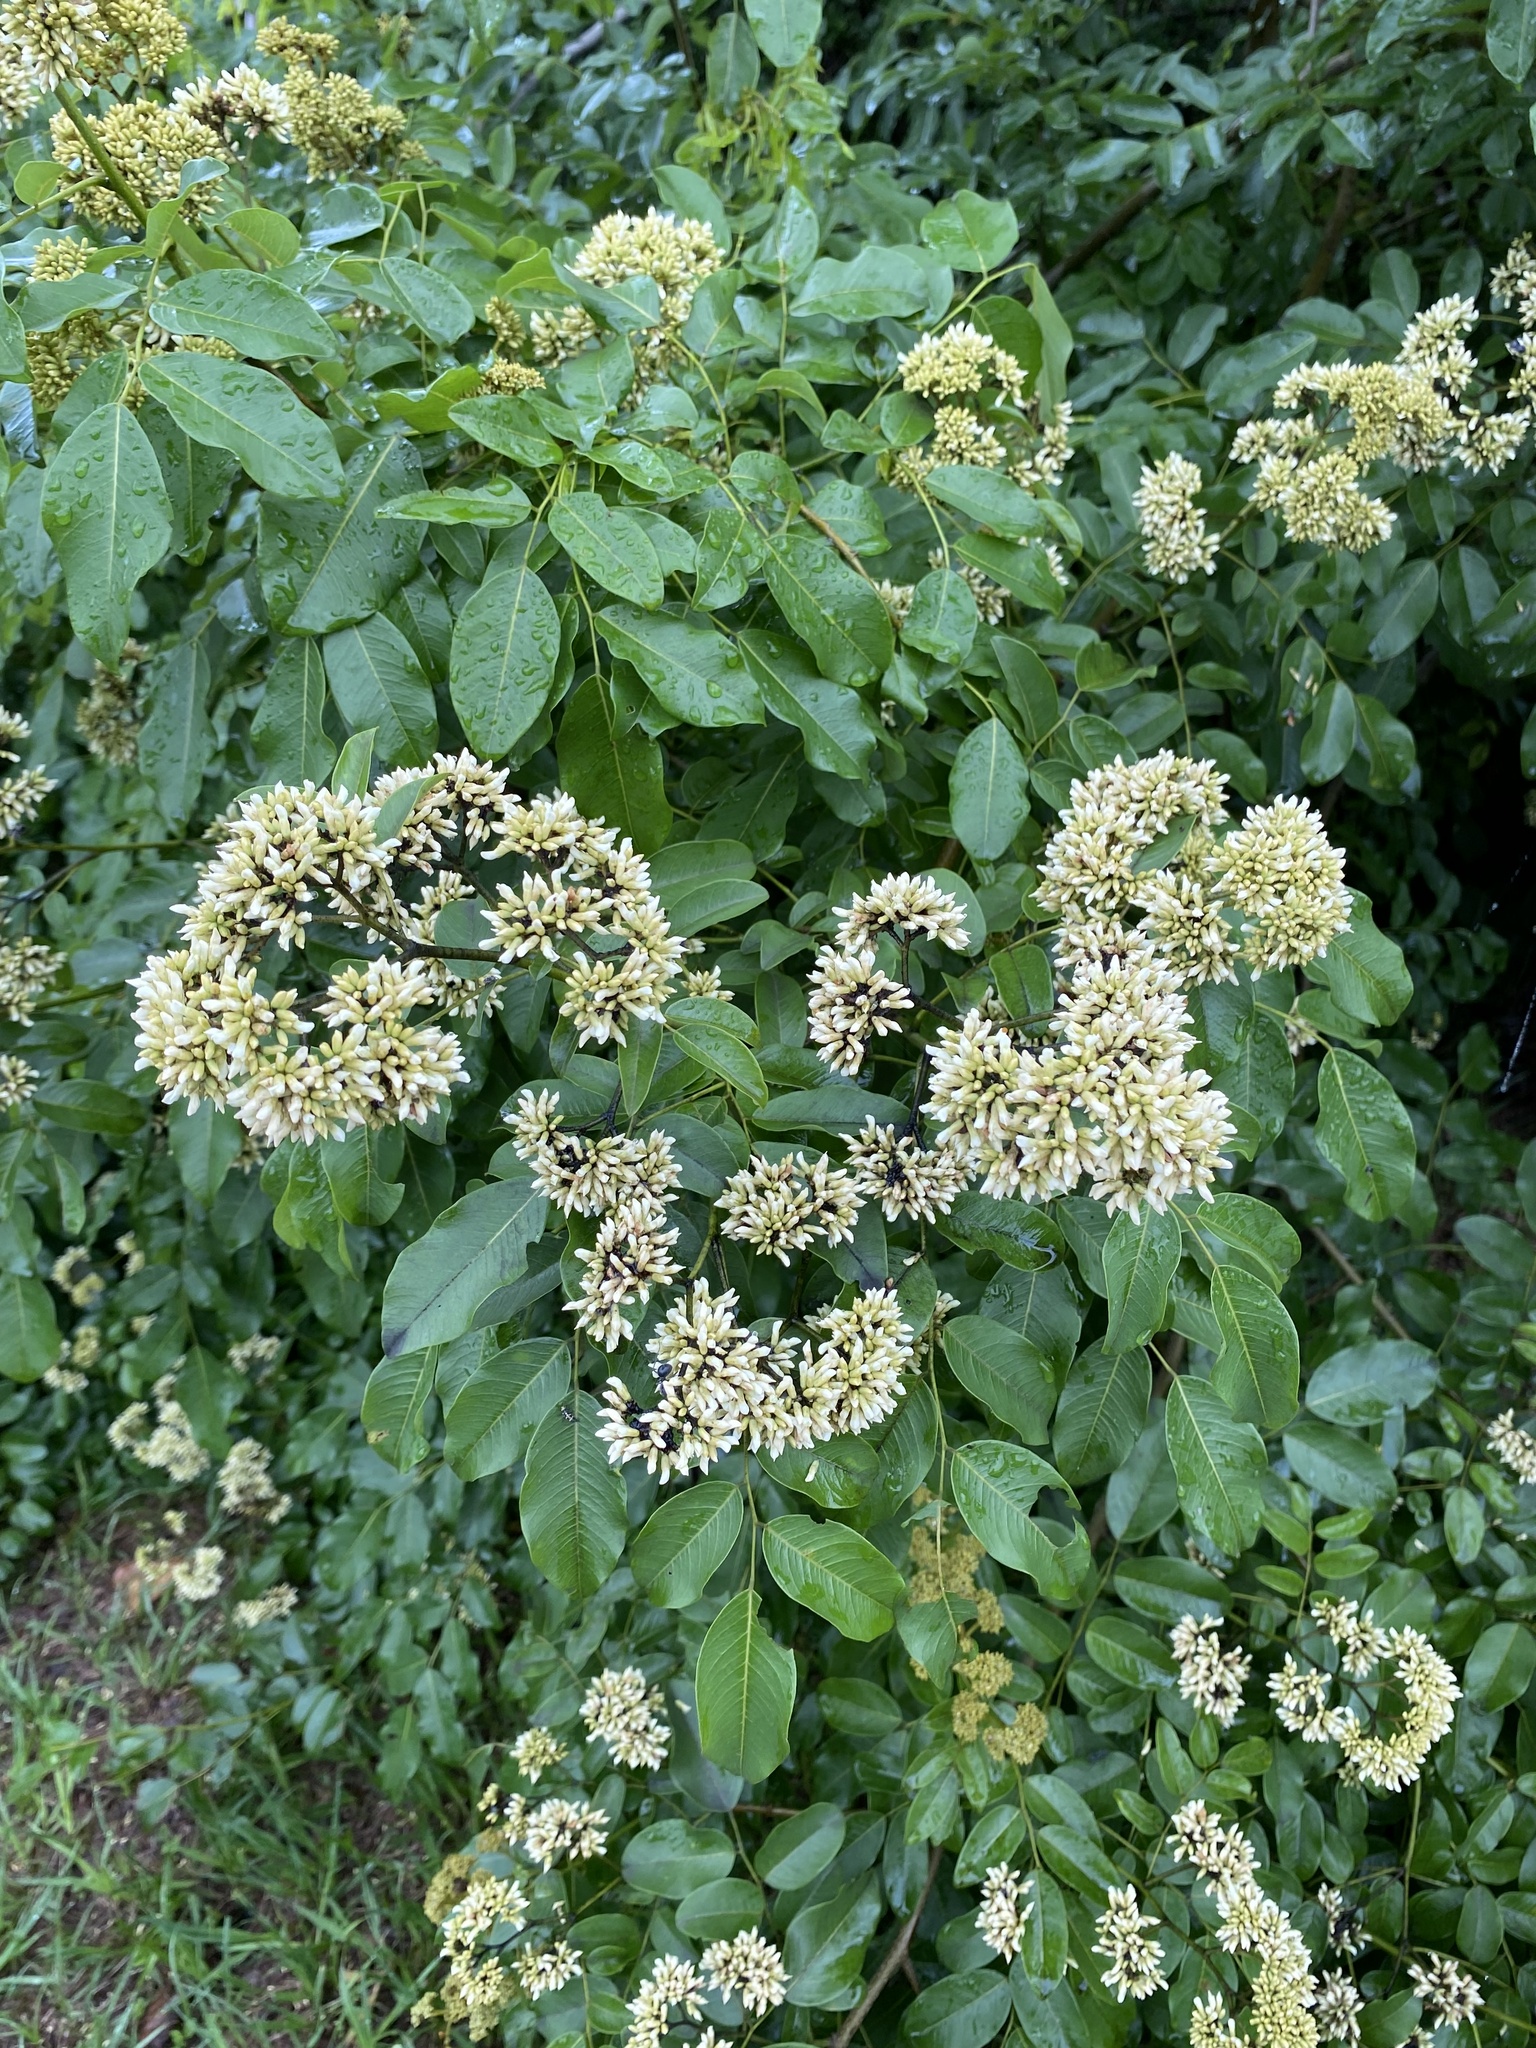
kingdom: Plantae
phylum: Tracheophyta
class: Magnoliopsida
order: Fabales
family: Fabaceae
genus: Dalbergia
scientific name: Dalbergia obovata
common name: Climbing flat-bean
